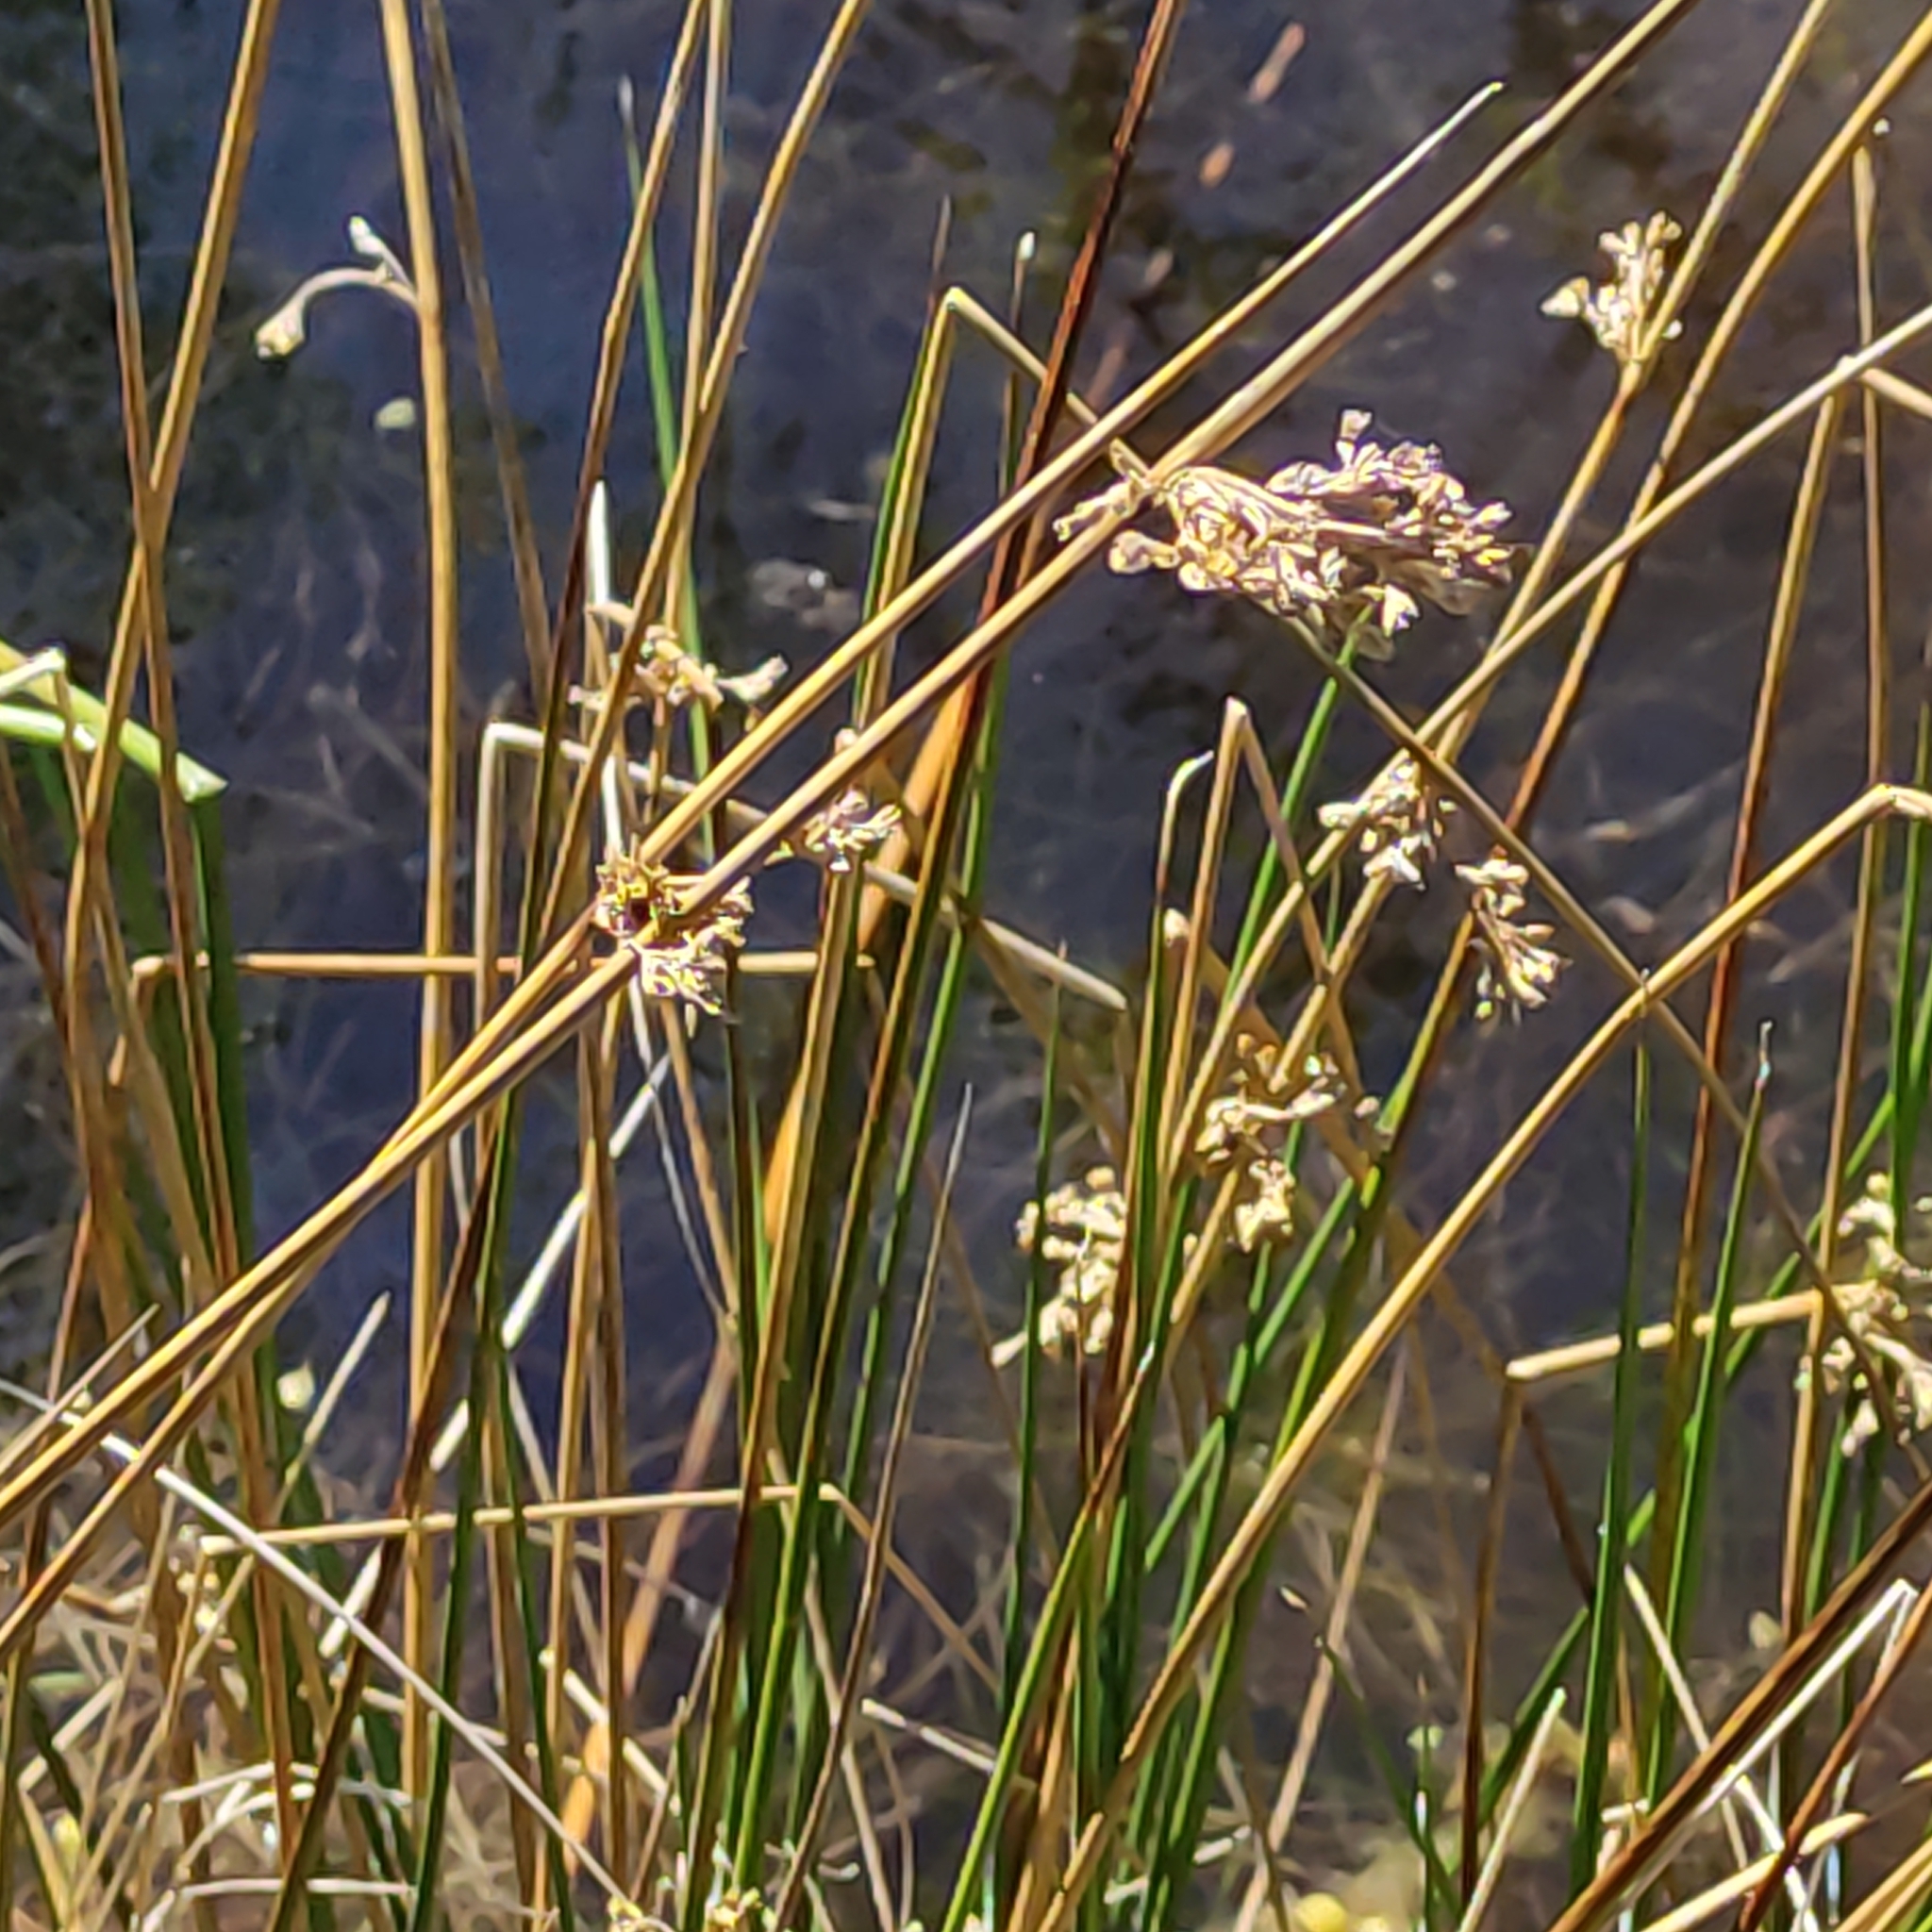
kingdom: Plantae
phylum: Tracheophyta
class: Liliopsida
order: Poales
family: Juncaceae
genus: Juncus
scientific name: Juncus edgariae
